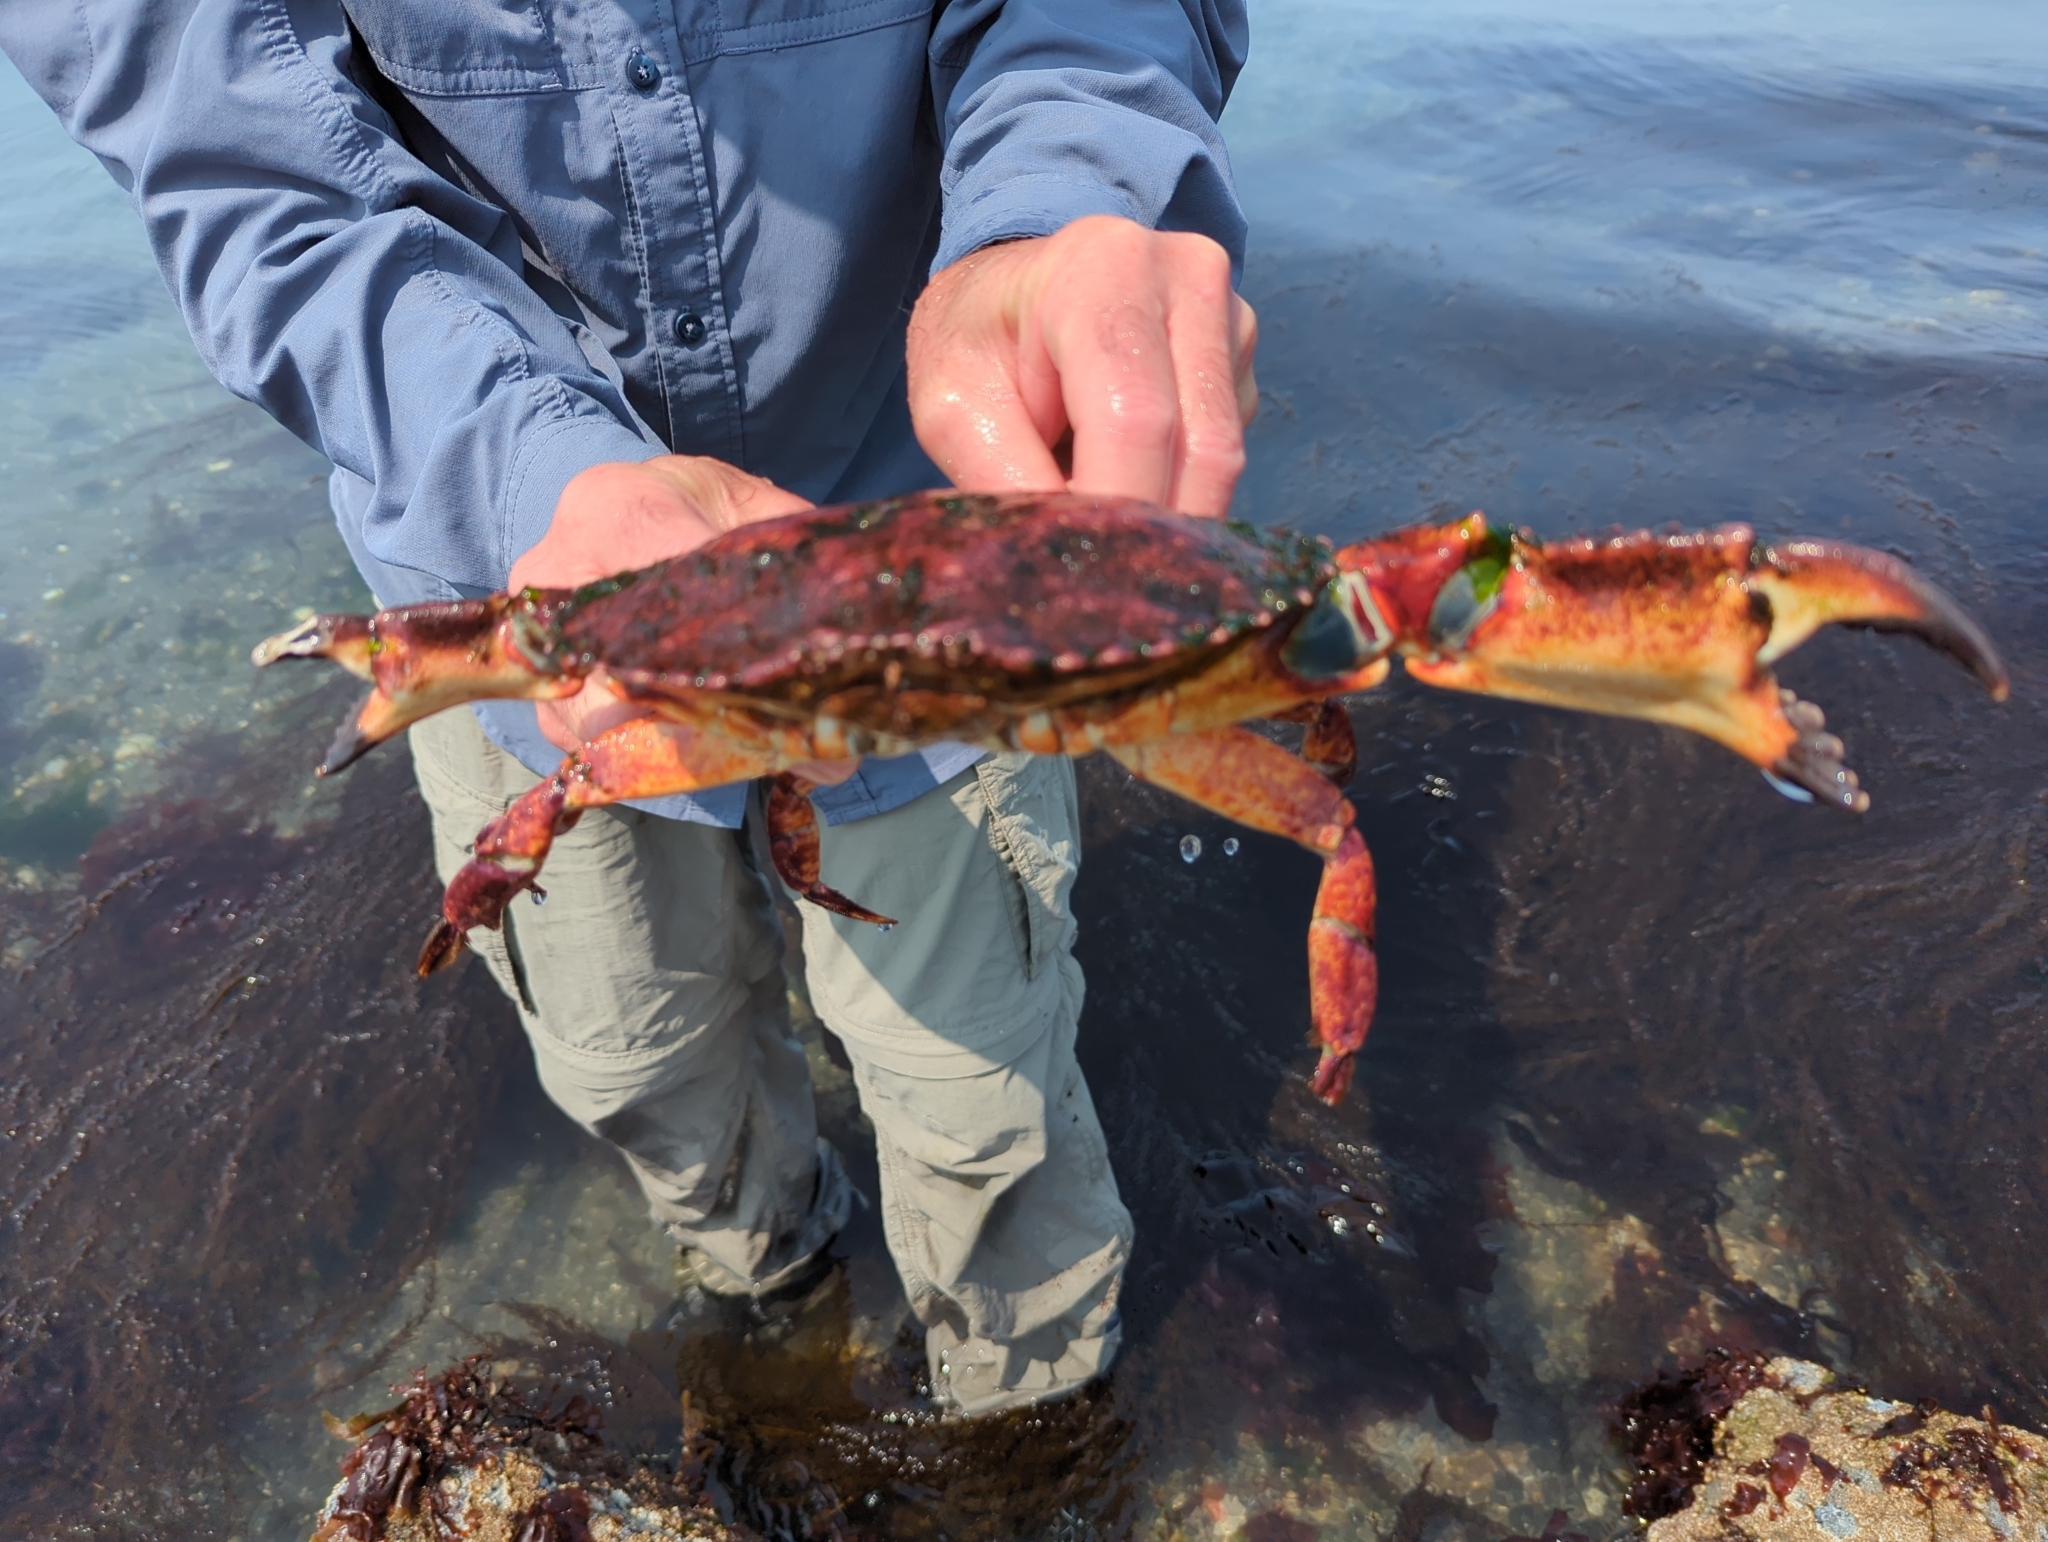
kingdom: Animalia
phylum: Arthropoda
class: Malacostraca
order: Decapoda
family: Cancridae
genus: Cancer
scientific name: Cancer productus
